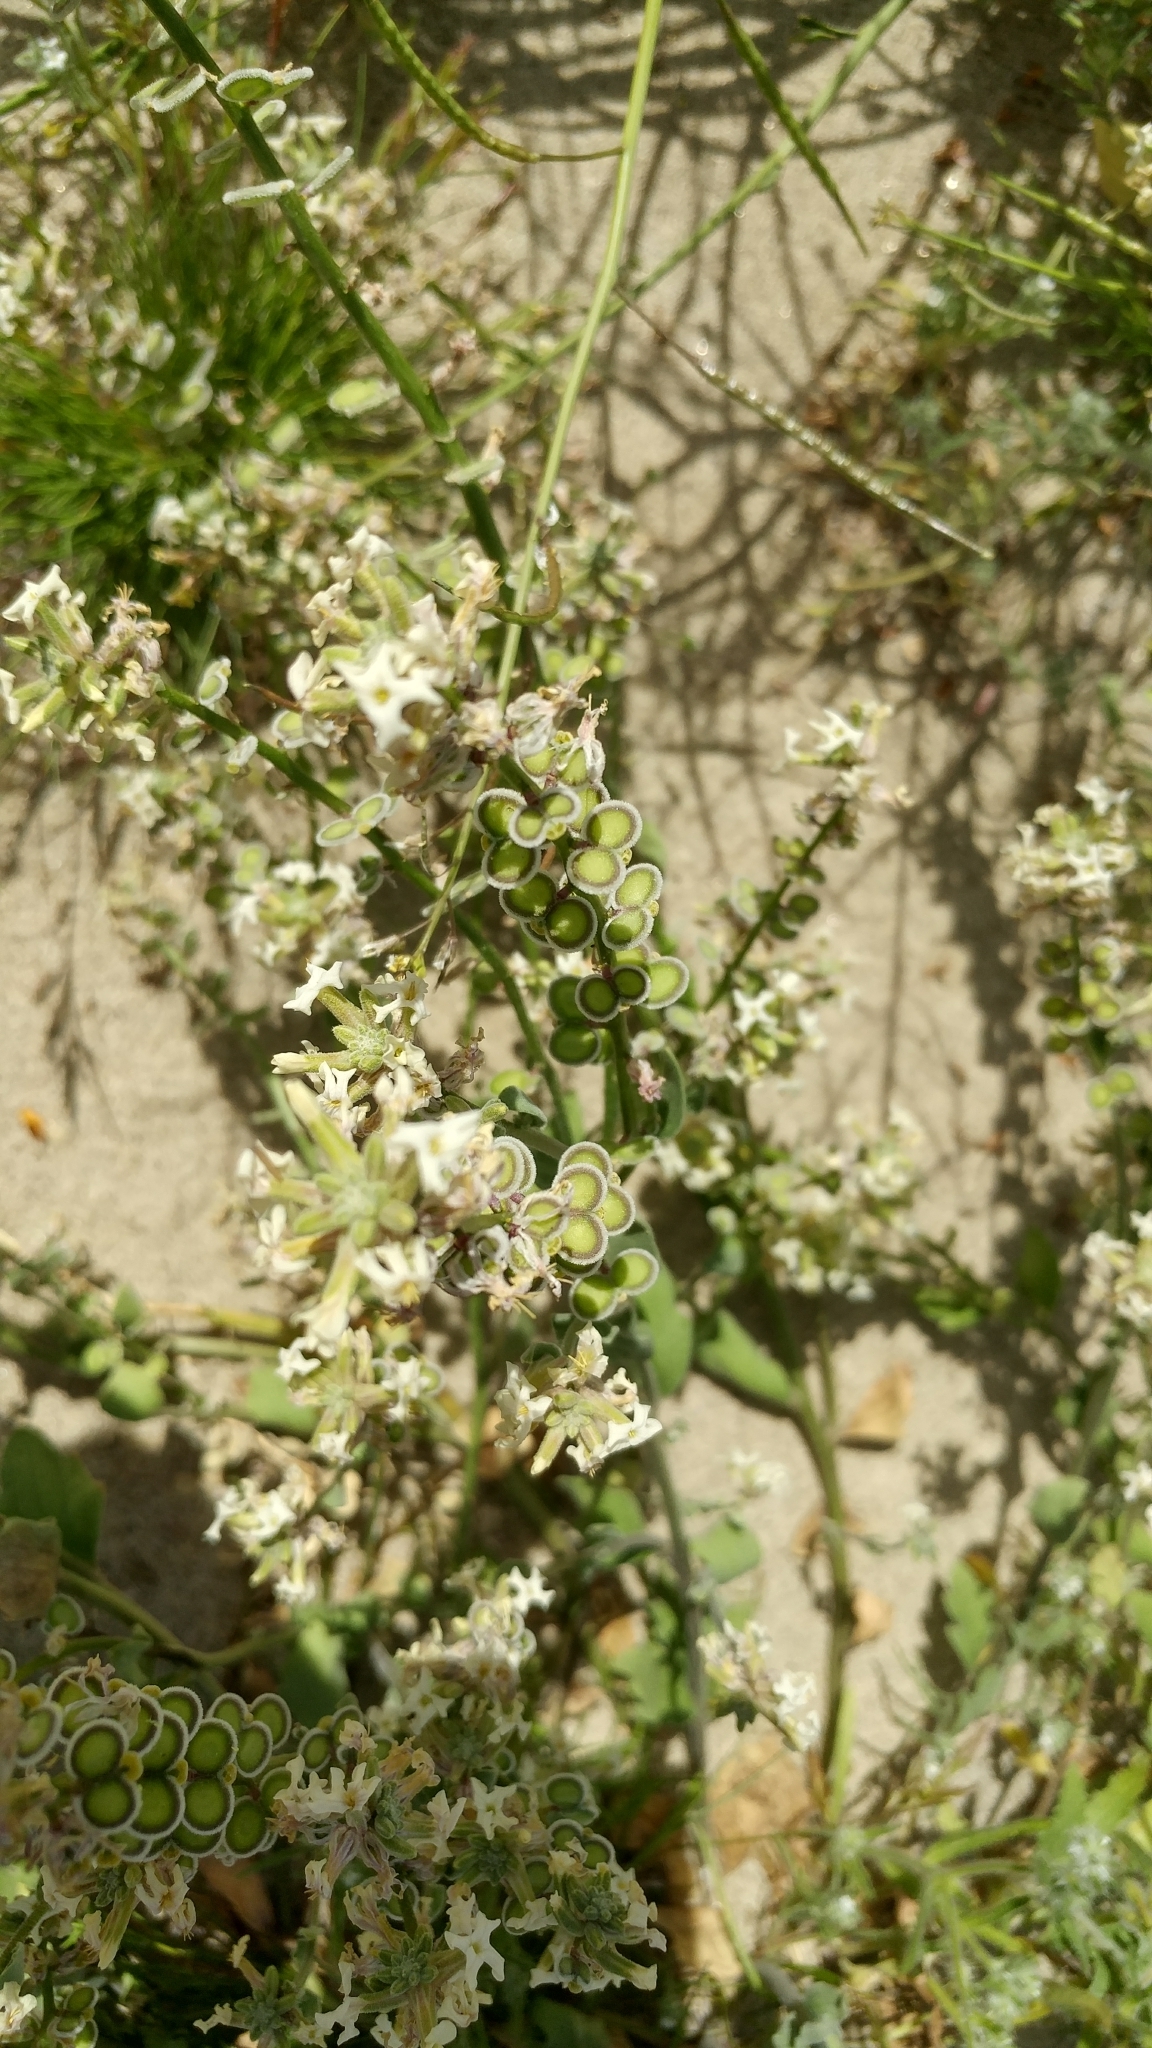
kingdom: Plantae
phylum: Tracheophyta
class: Magnoliopsida
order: Brassicales
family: Brassicaceae
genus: Dithyrea
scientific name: Dithyrea californica
